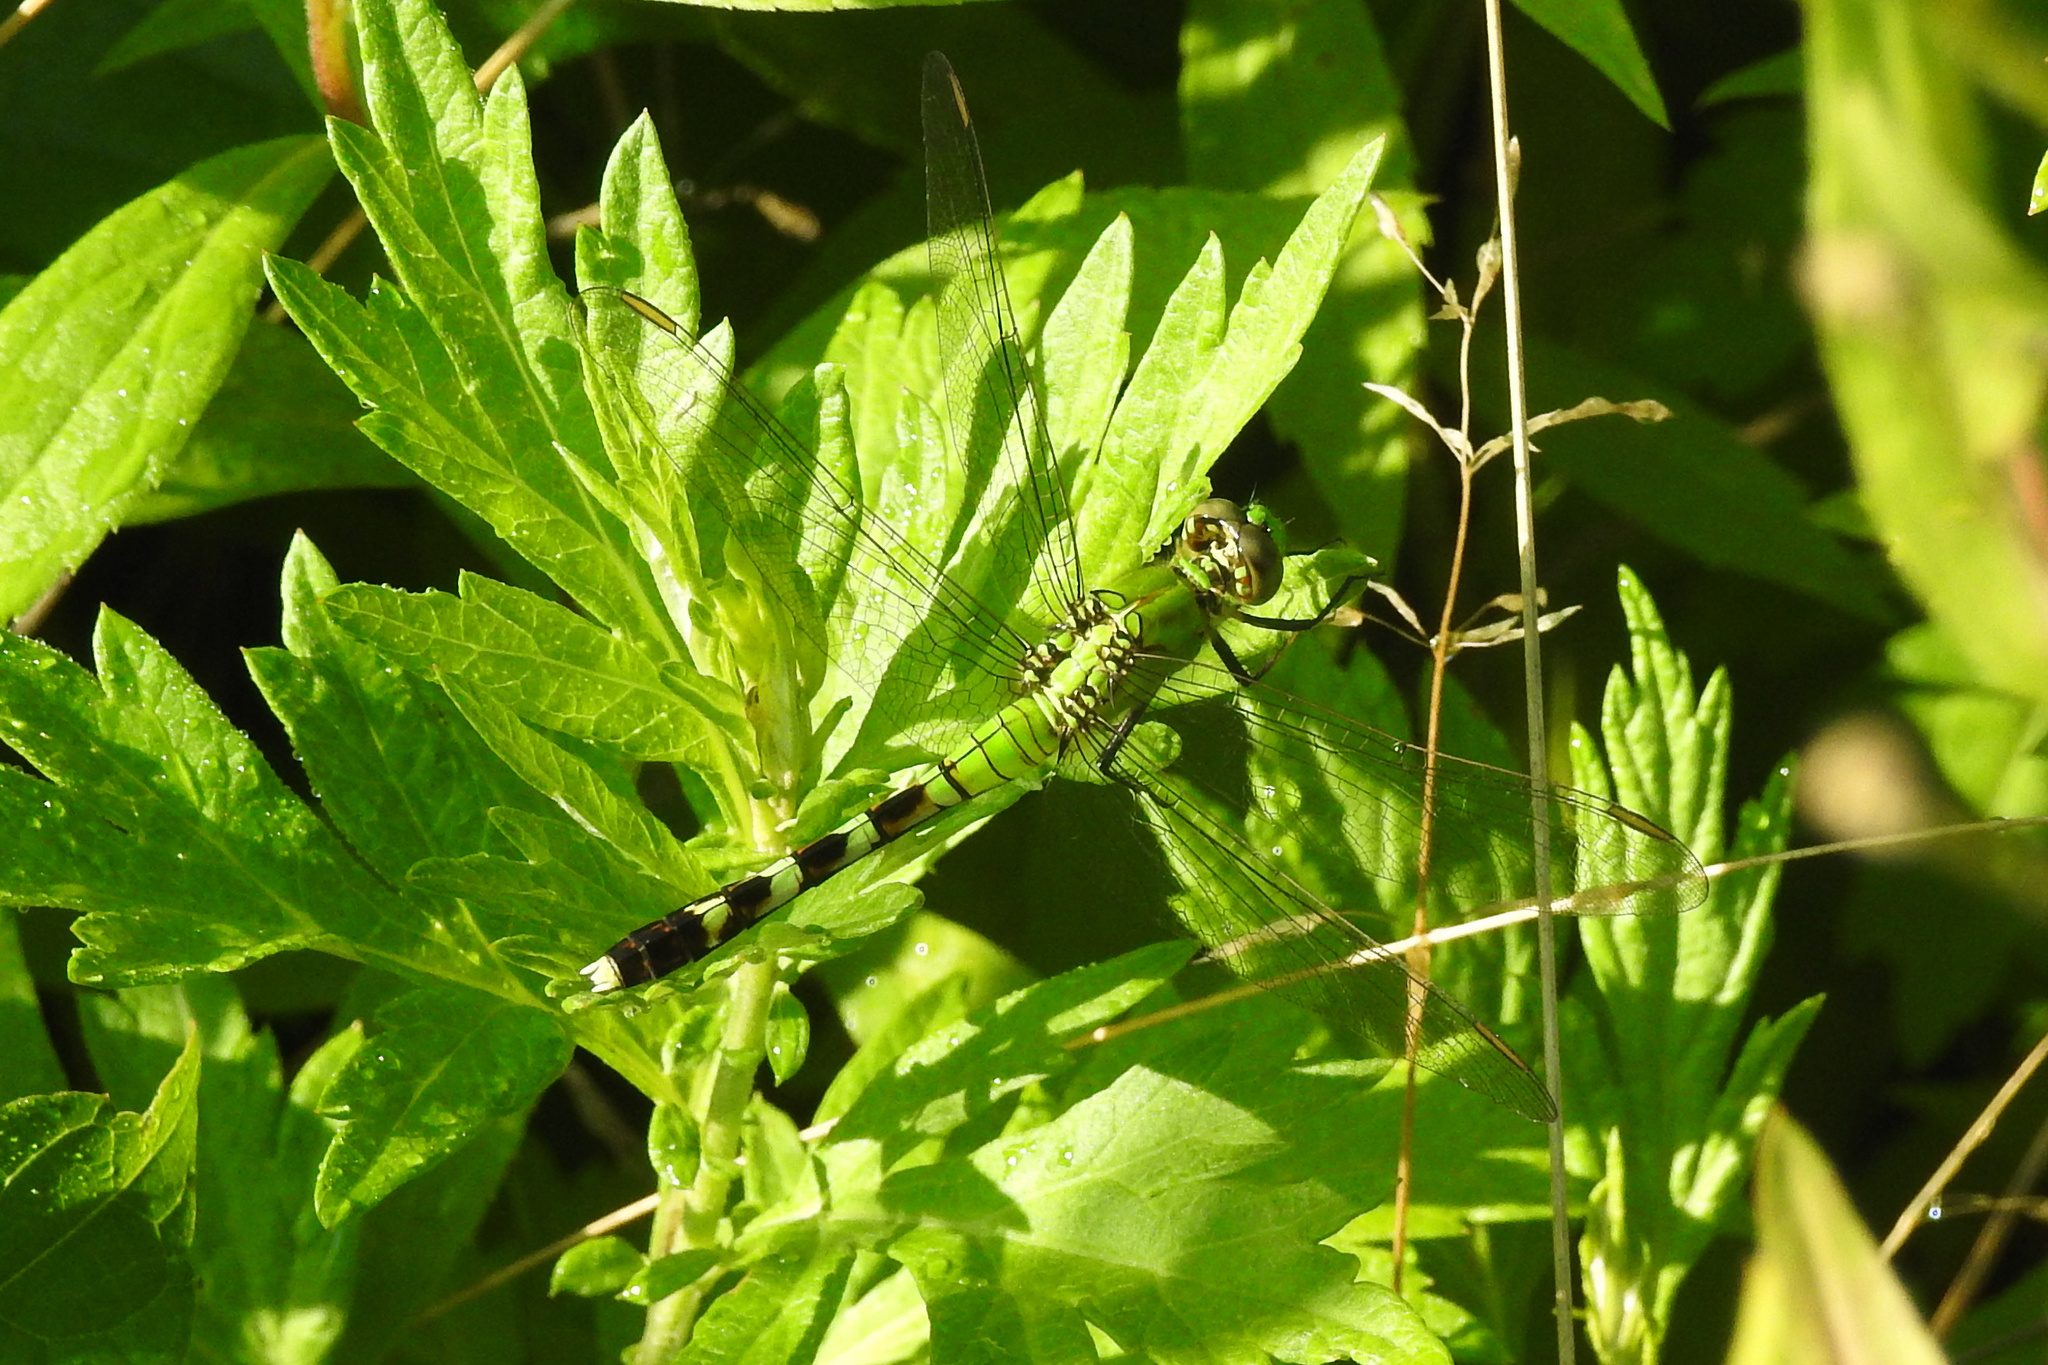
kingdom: Animalia
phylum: Arthropoda
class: Insecta
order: Odonata
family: Libellulidae
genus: Erythemis
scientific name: Erythemis simplicicollis
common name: Eastern pondhawk
